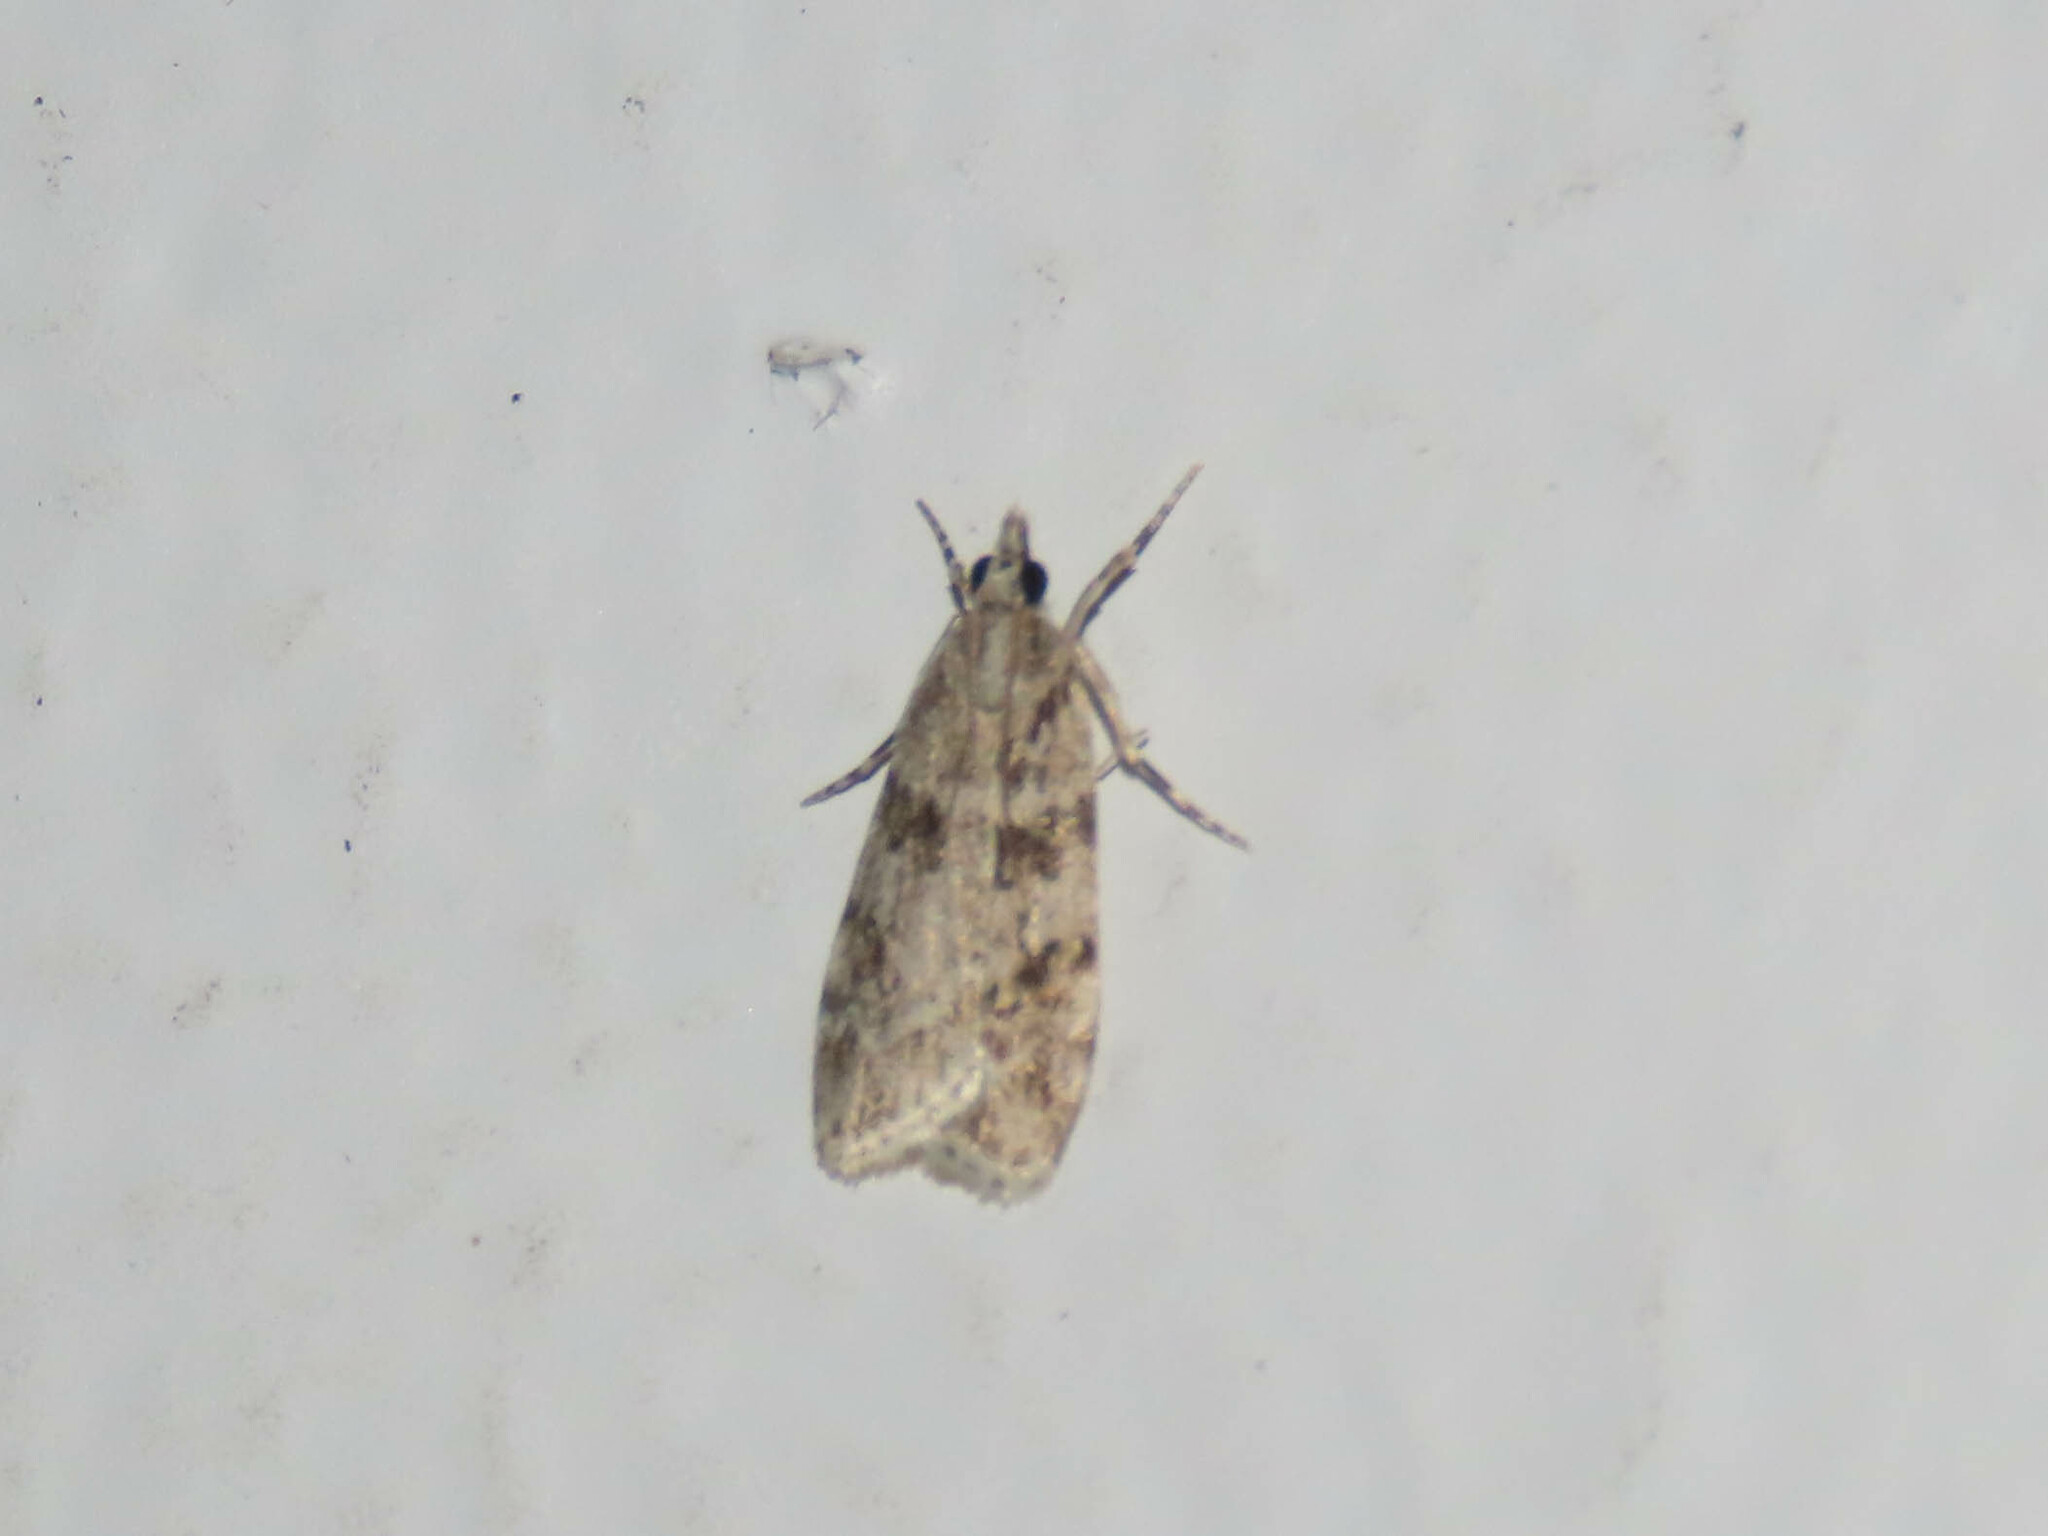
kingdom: Animalia
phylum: Arthropoda
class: Insecta
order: Lepidoptera
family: Crambidae
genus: Scoparia
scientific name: Scoparia biplagialis
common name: Double-striped scoparia moth
